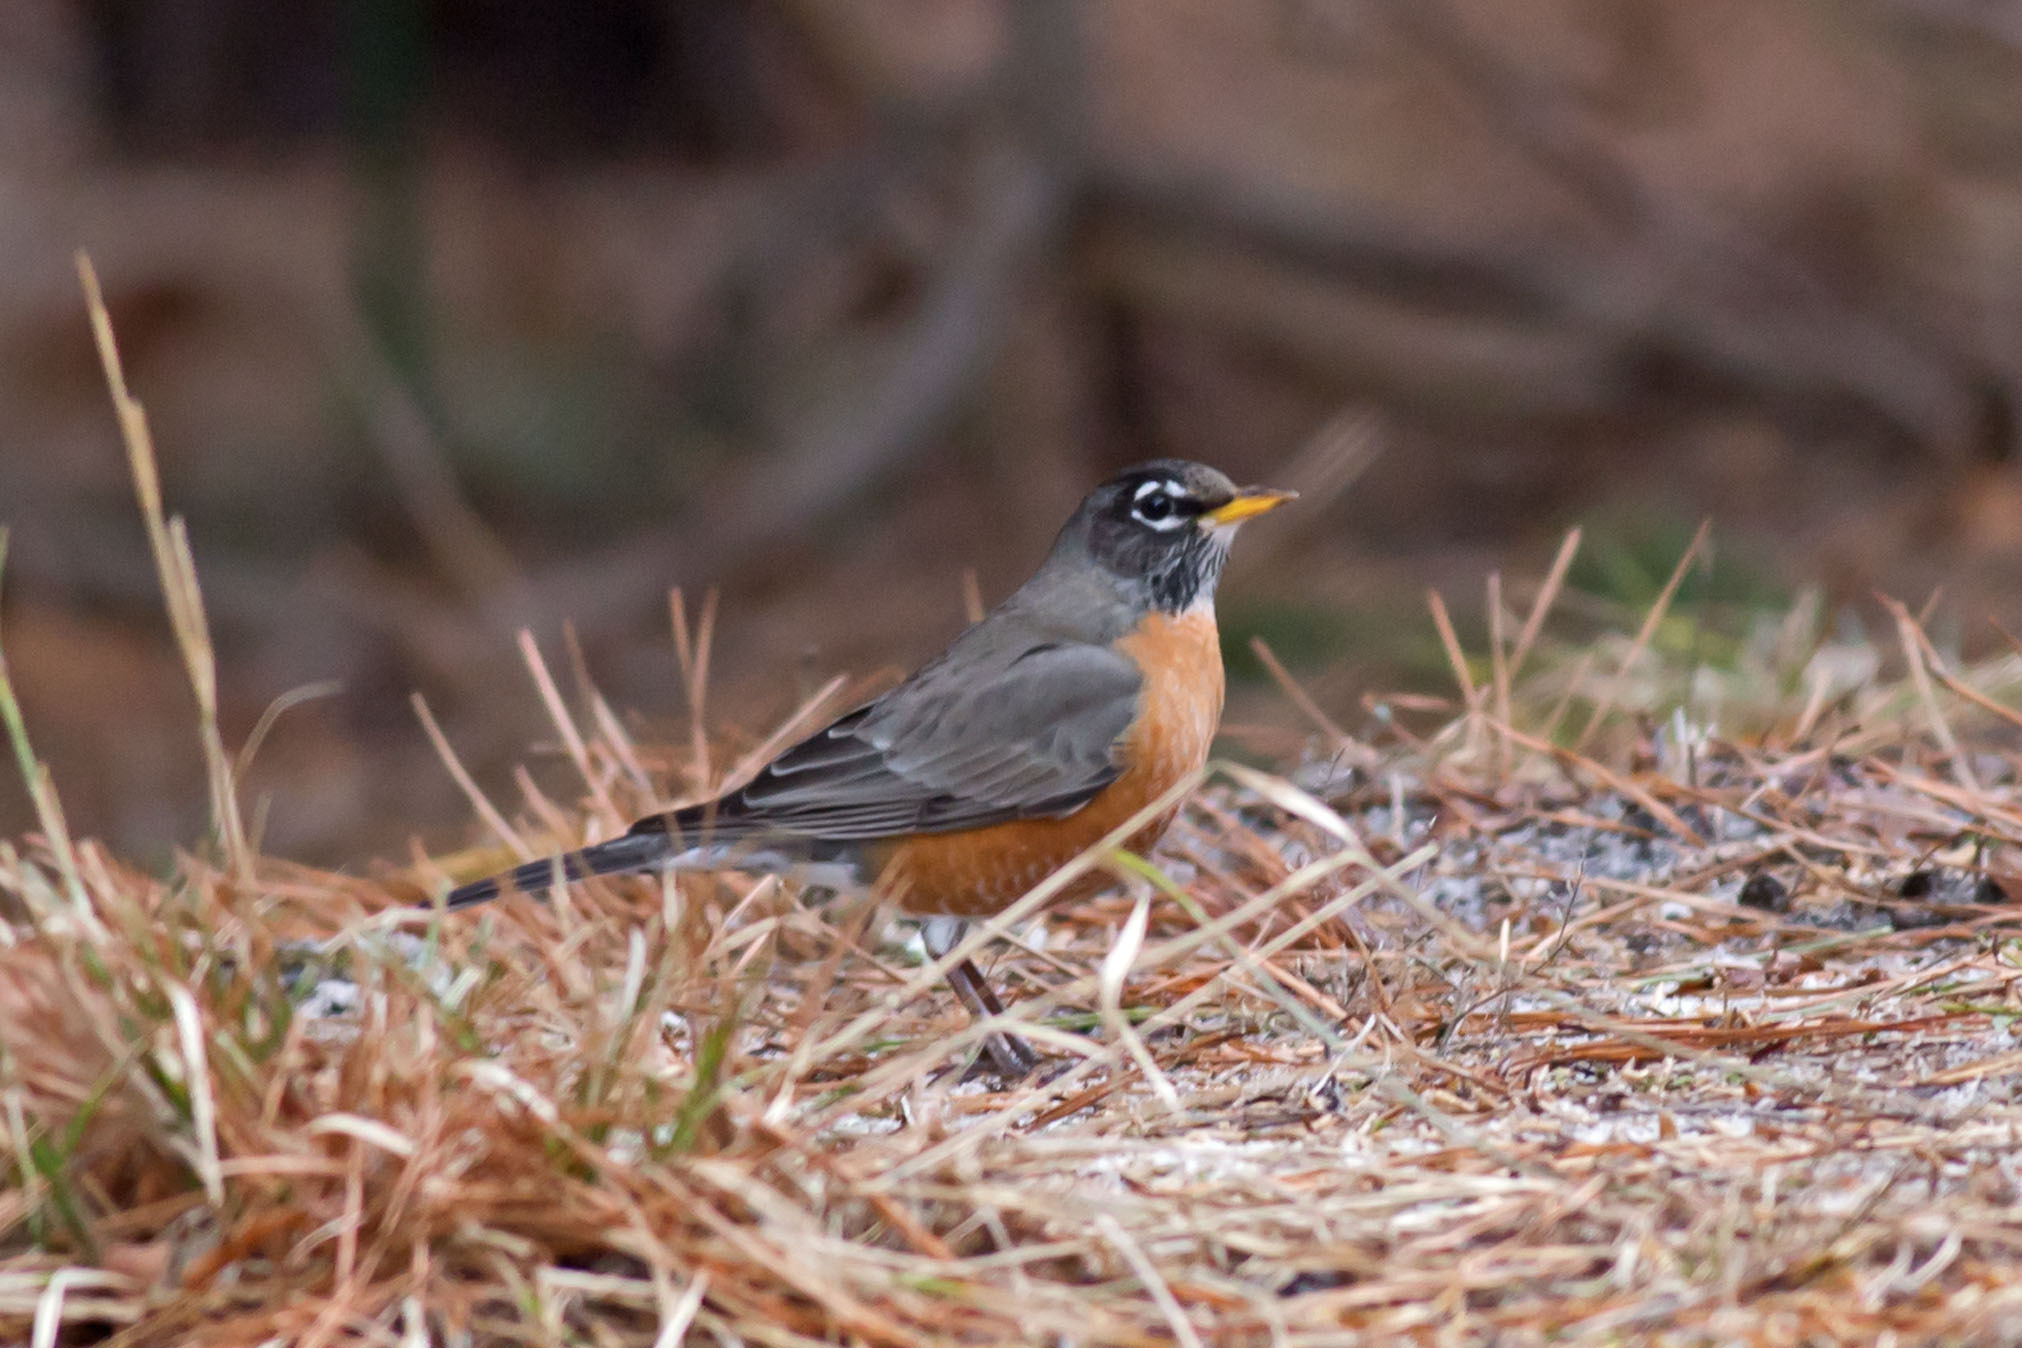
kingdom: Animalia
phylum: Chordata
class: Aves
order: Passeriformes
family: Turdidae
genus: Turdus
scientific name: Turdus migratorius
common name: American robin
